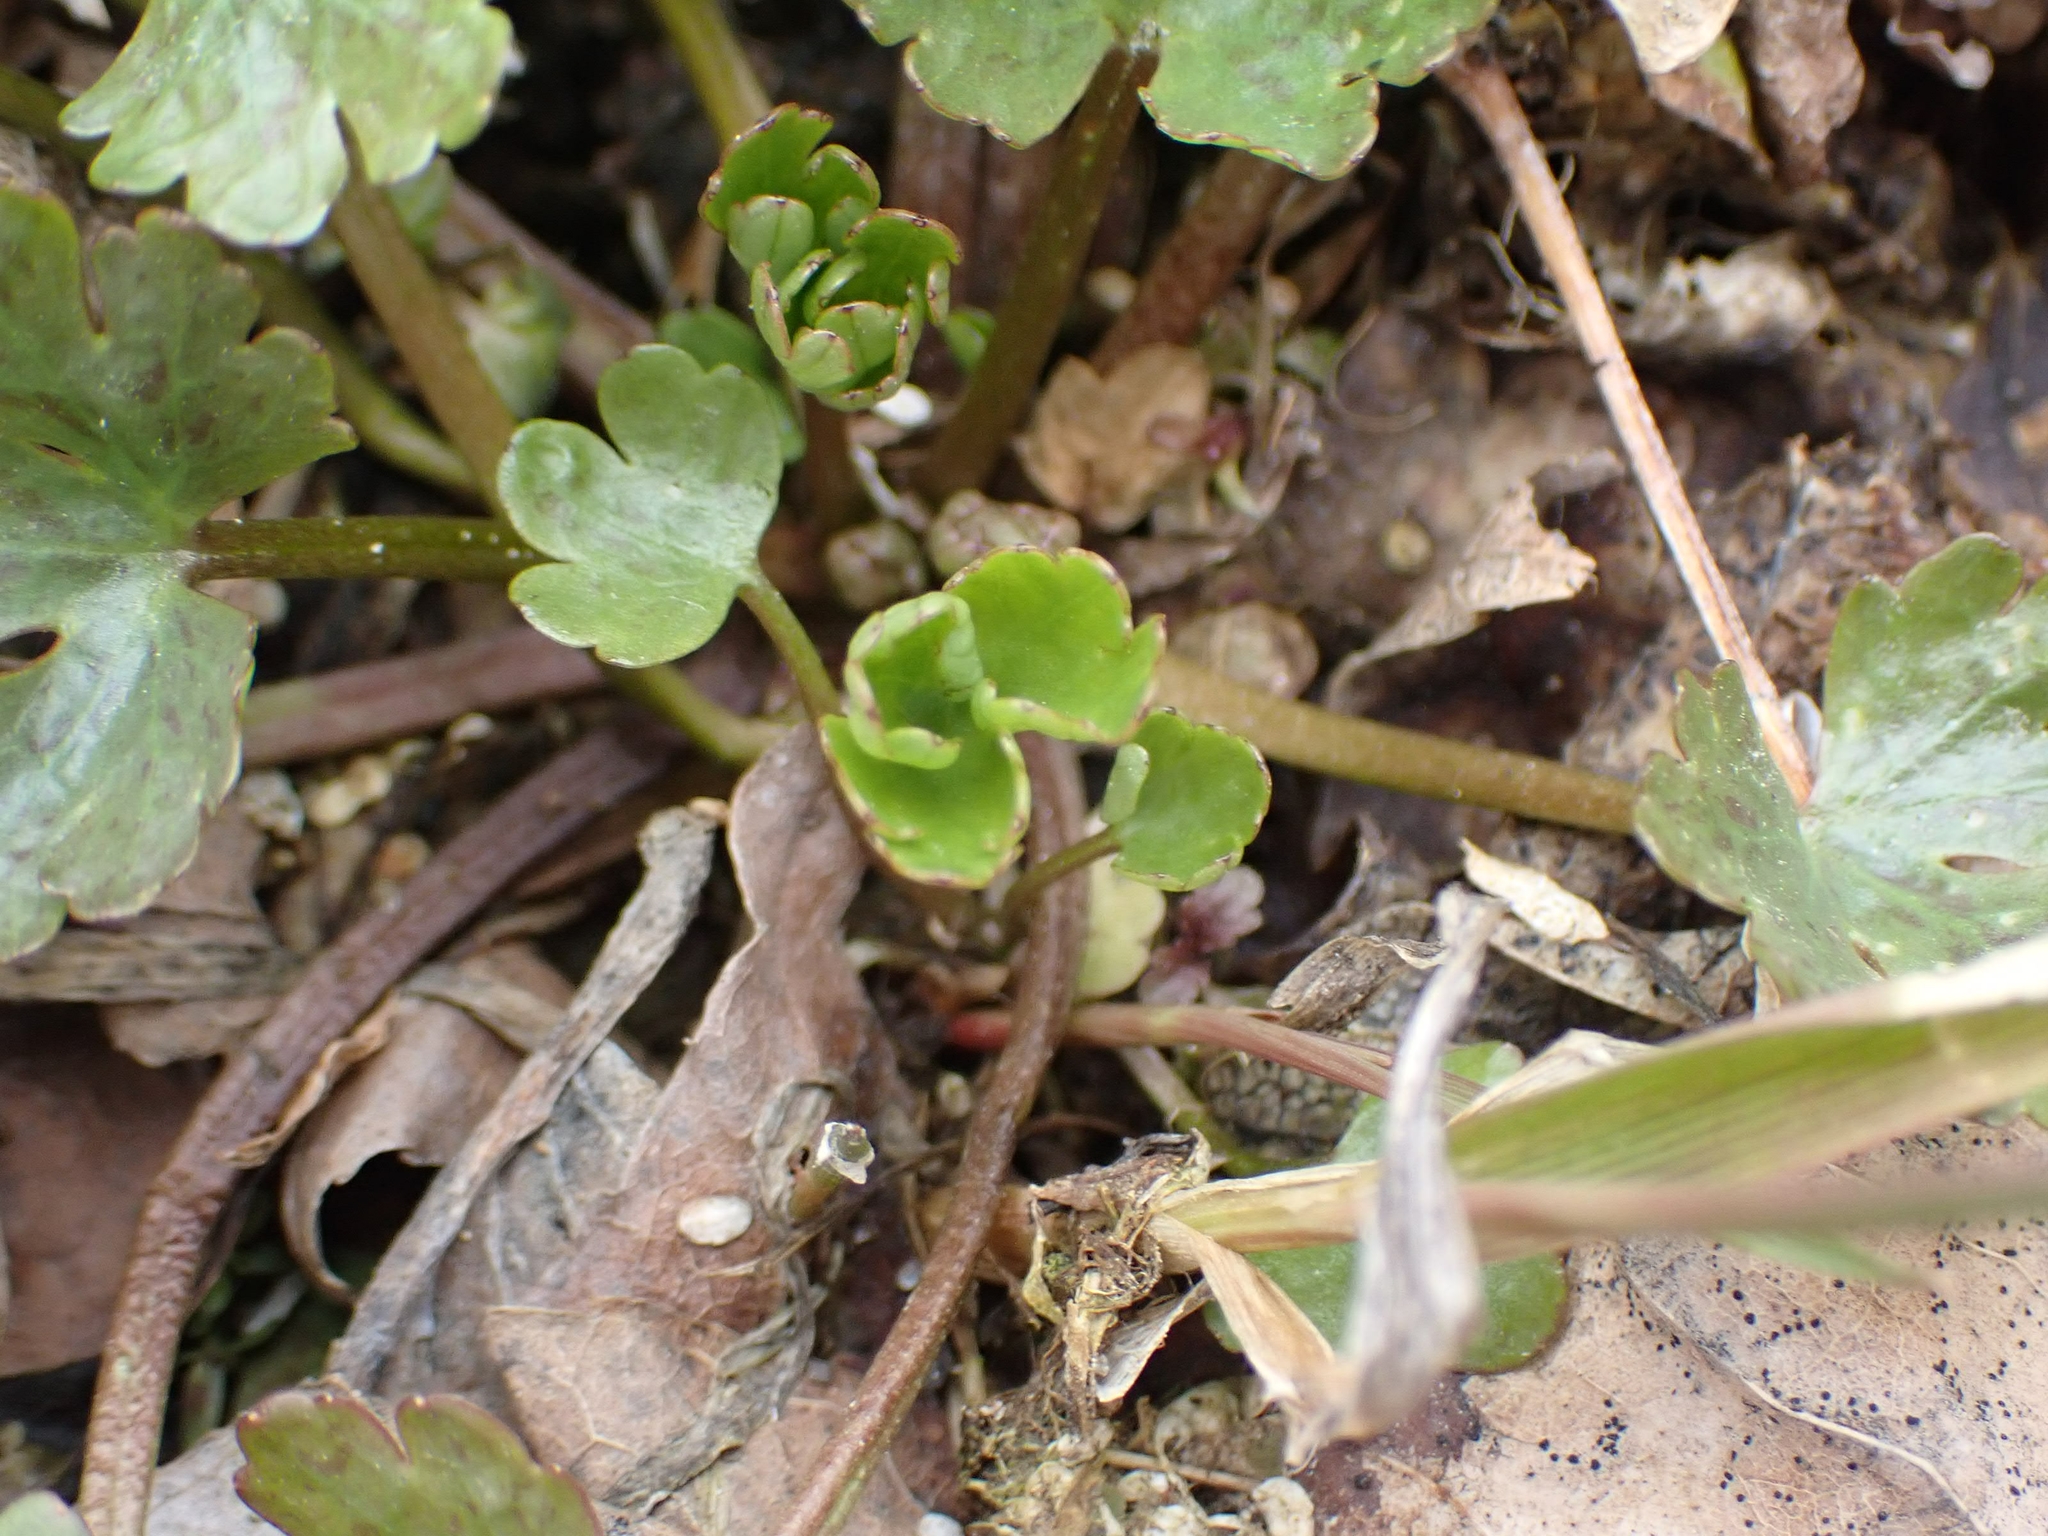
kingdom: Plantae
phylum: Tracheophyta
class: Magnoliopsida
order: Ranunculales
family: Ranunculaceae
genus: Ranunculus
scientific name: Ranunculus sceleratus
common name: Celery-leaved buttercup
